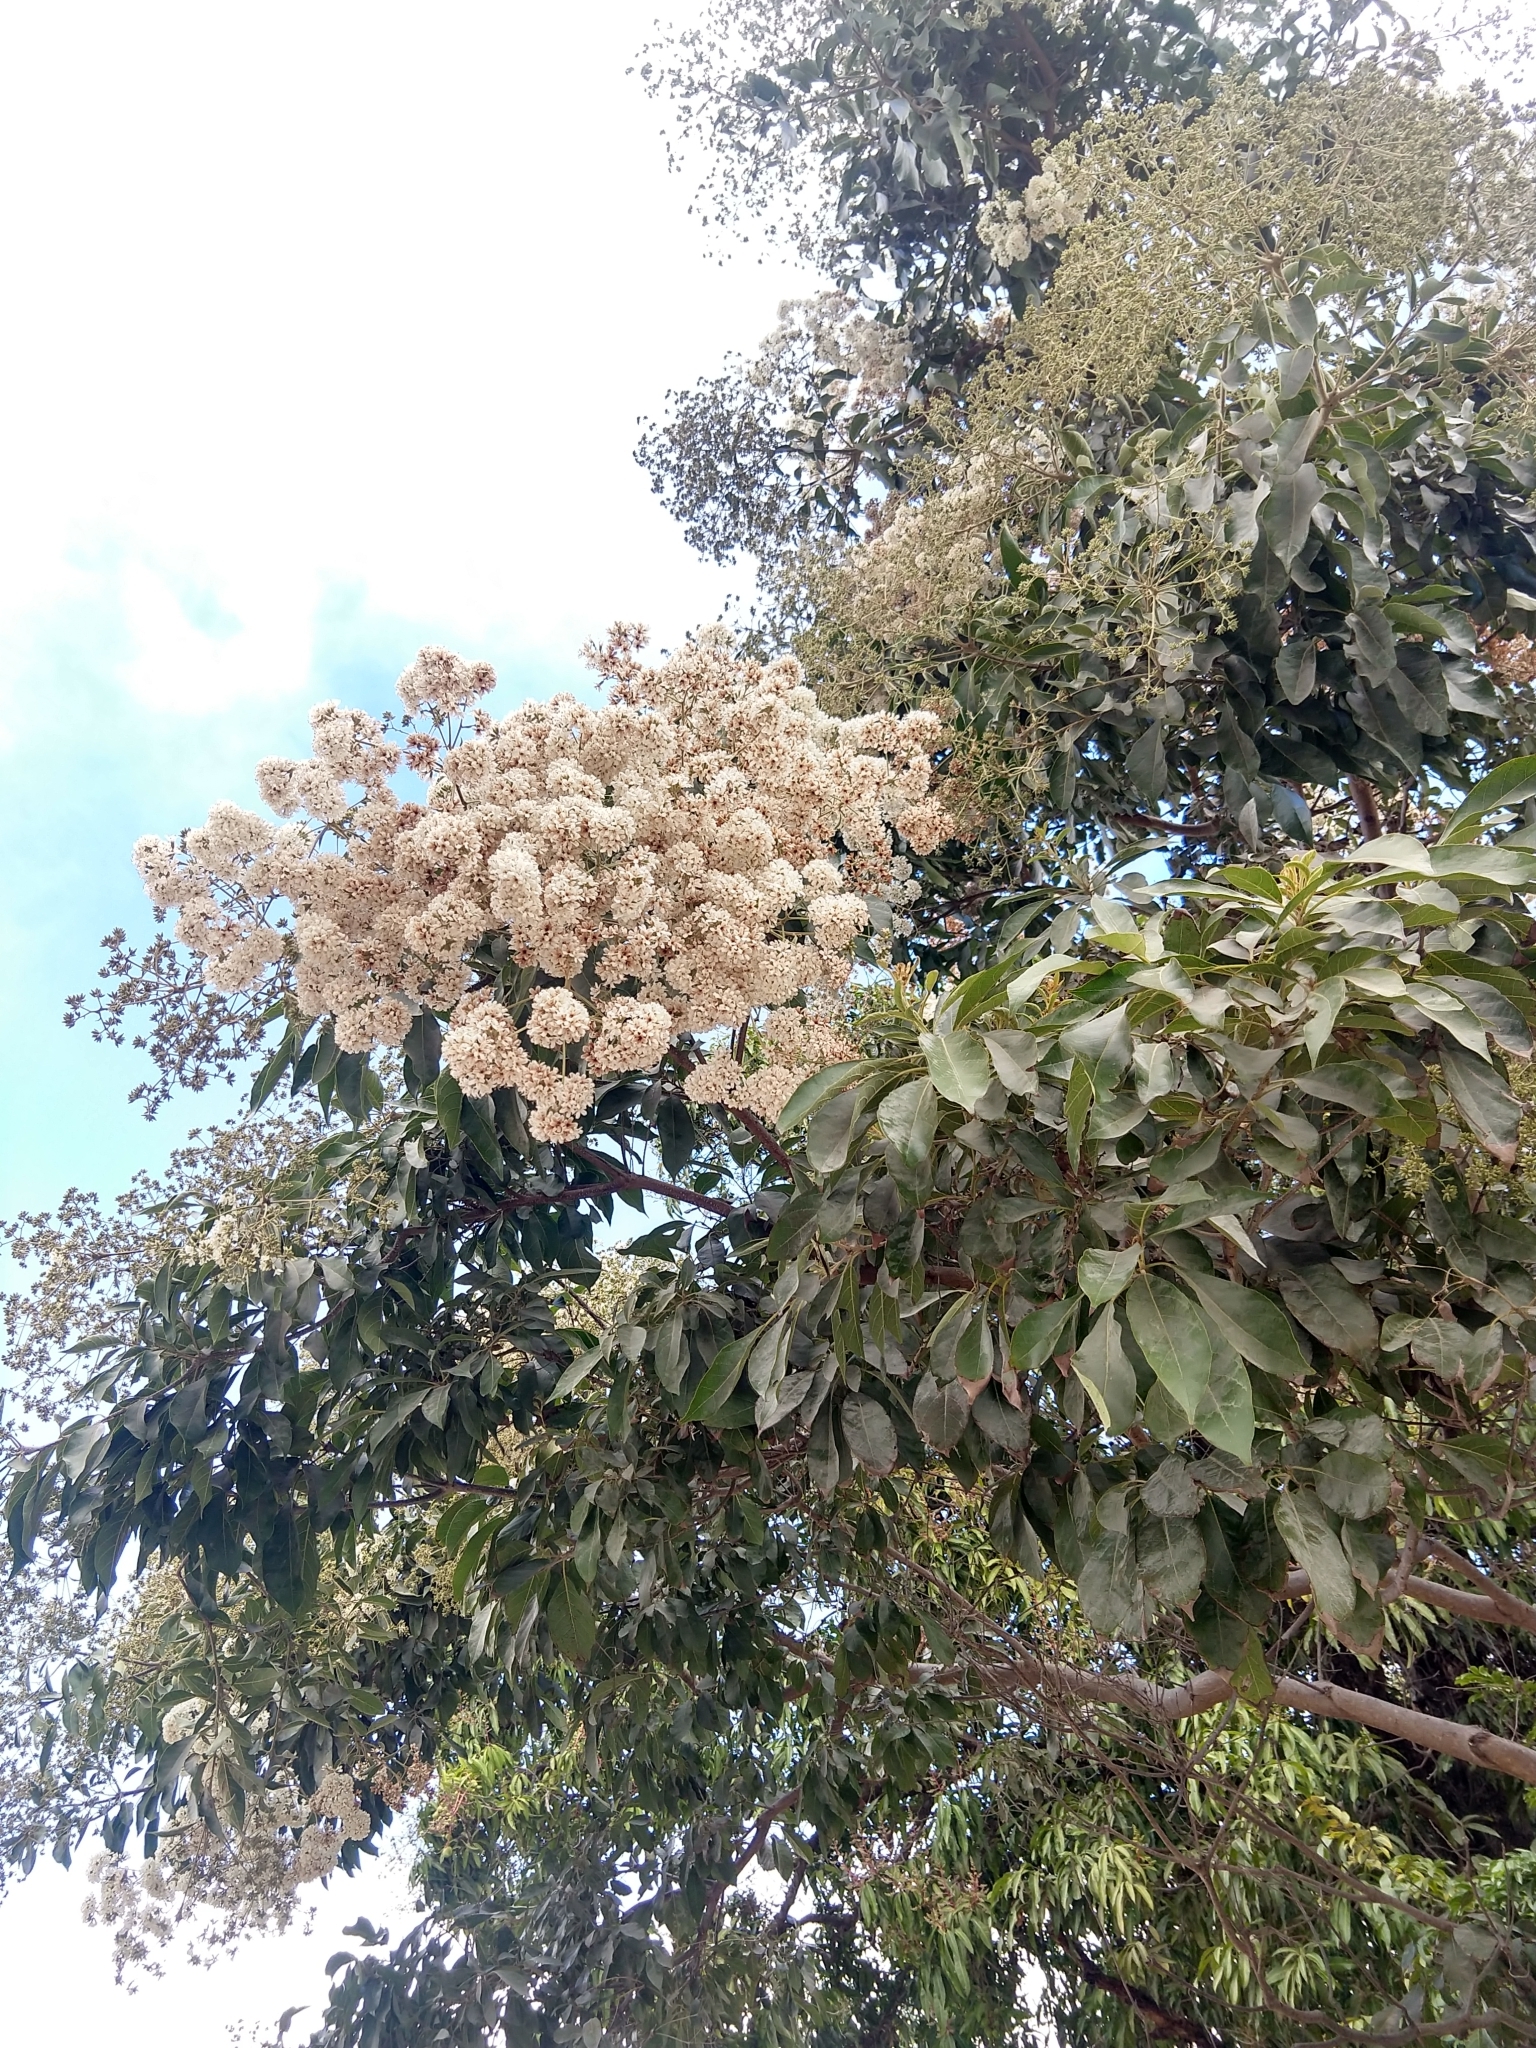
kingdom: Plantae
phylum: Tracheophyta
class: Magnoliopsida
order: Boraginales
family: Cordiaceae
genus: Cordia
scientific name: Cordia alliodora
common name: Spanish elm
